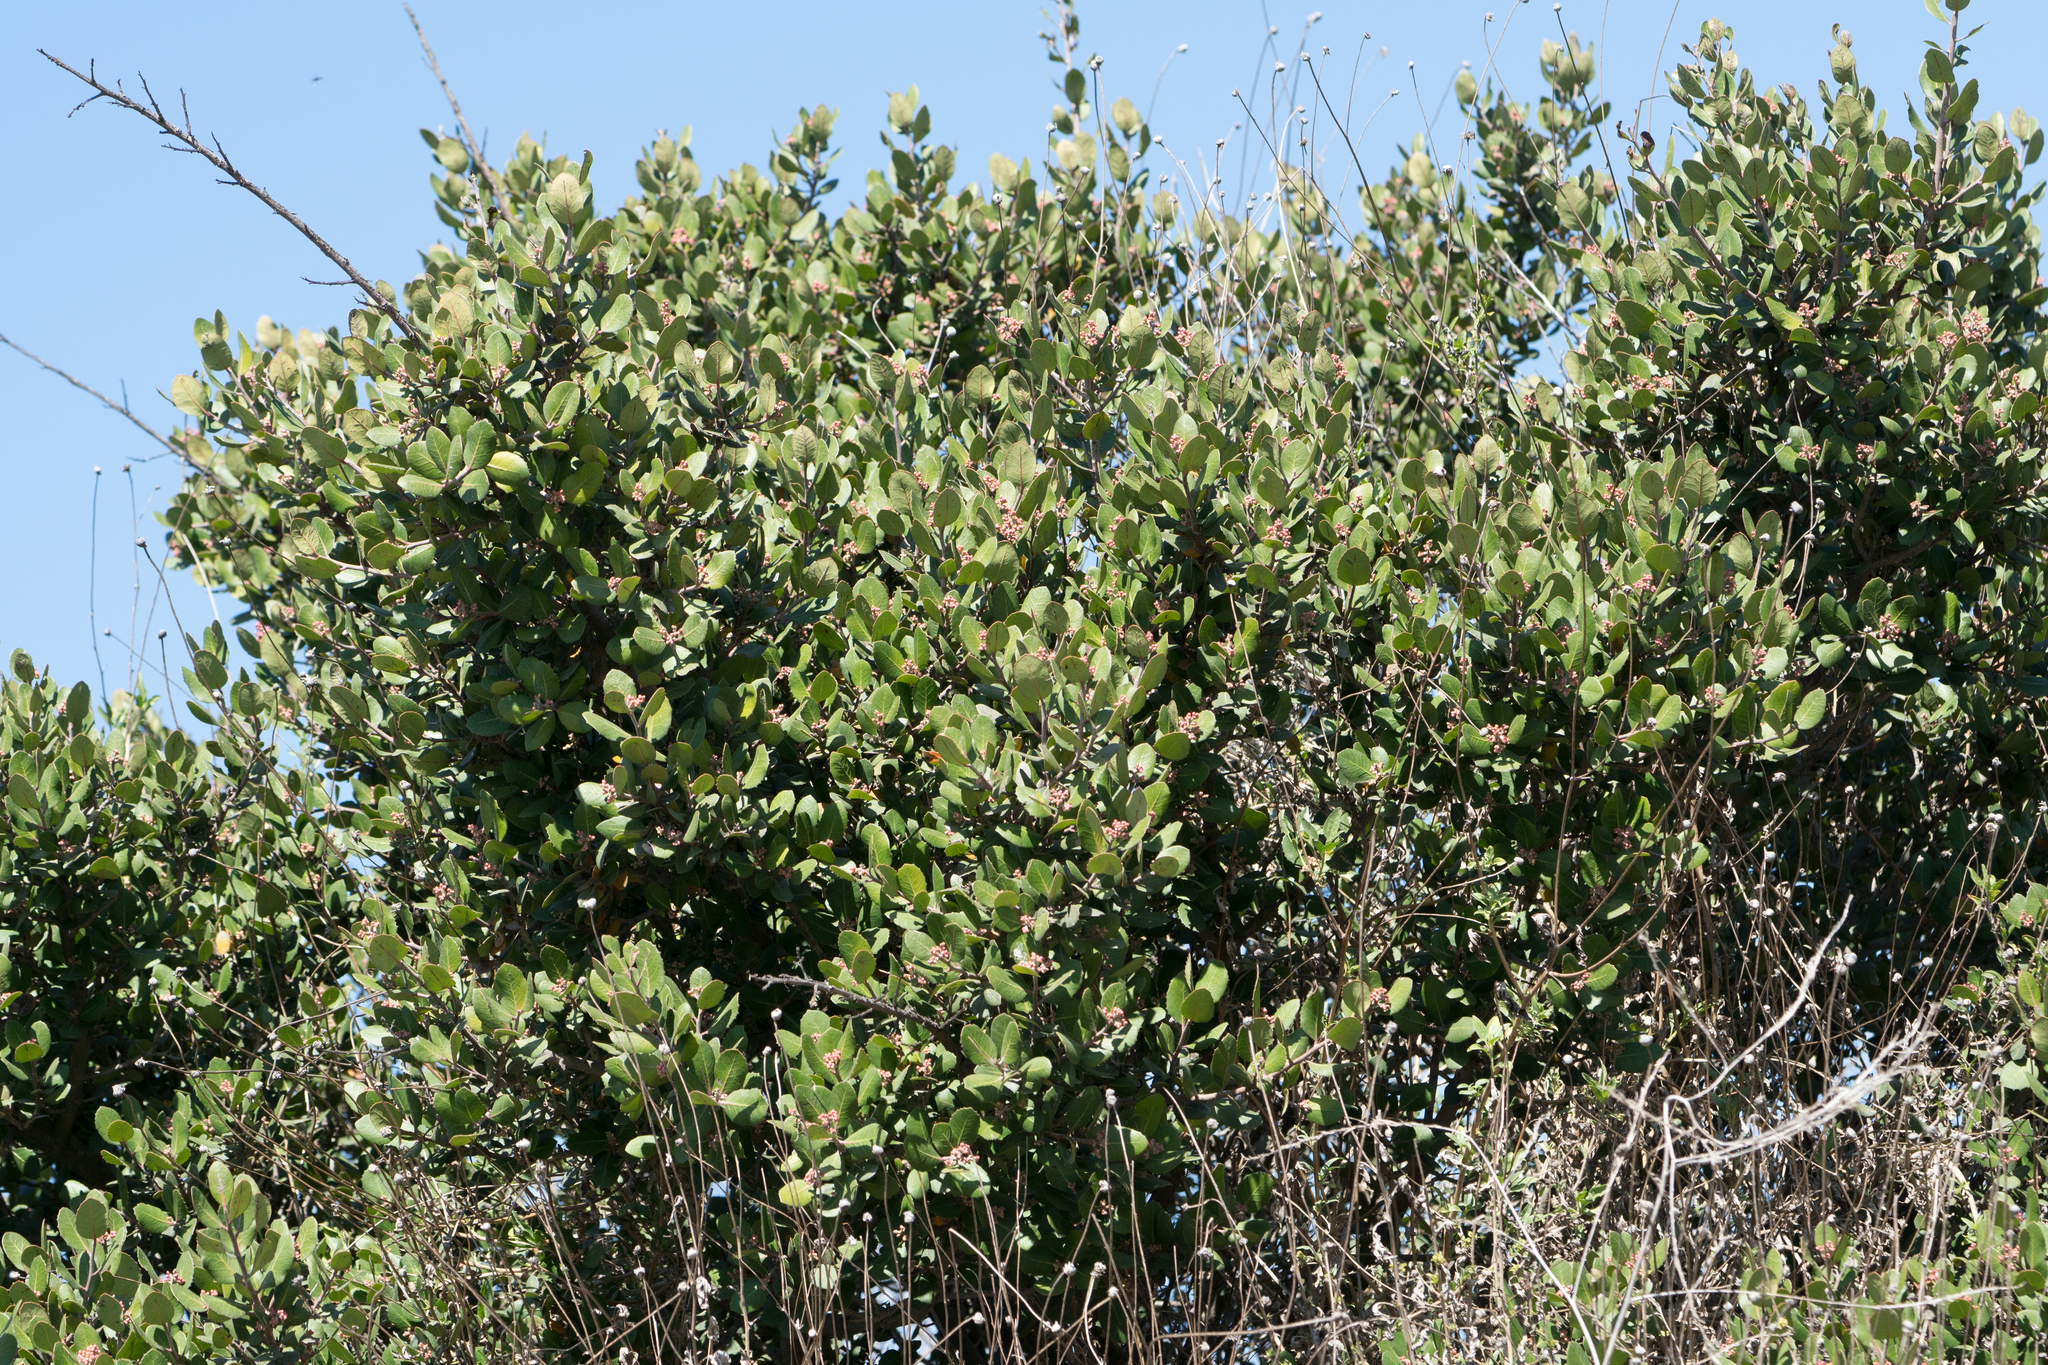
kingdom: Plantae
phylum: Tracheophyta
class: Magnoliopsida
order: Sapindales
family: Anacardiaceae
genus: Rhus
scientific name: Rhus integrifolia
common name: Lemonade sumac
